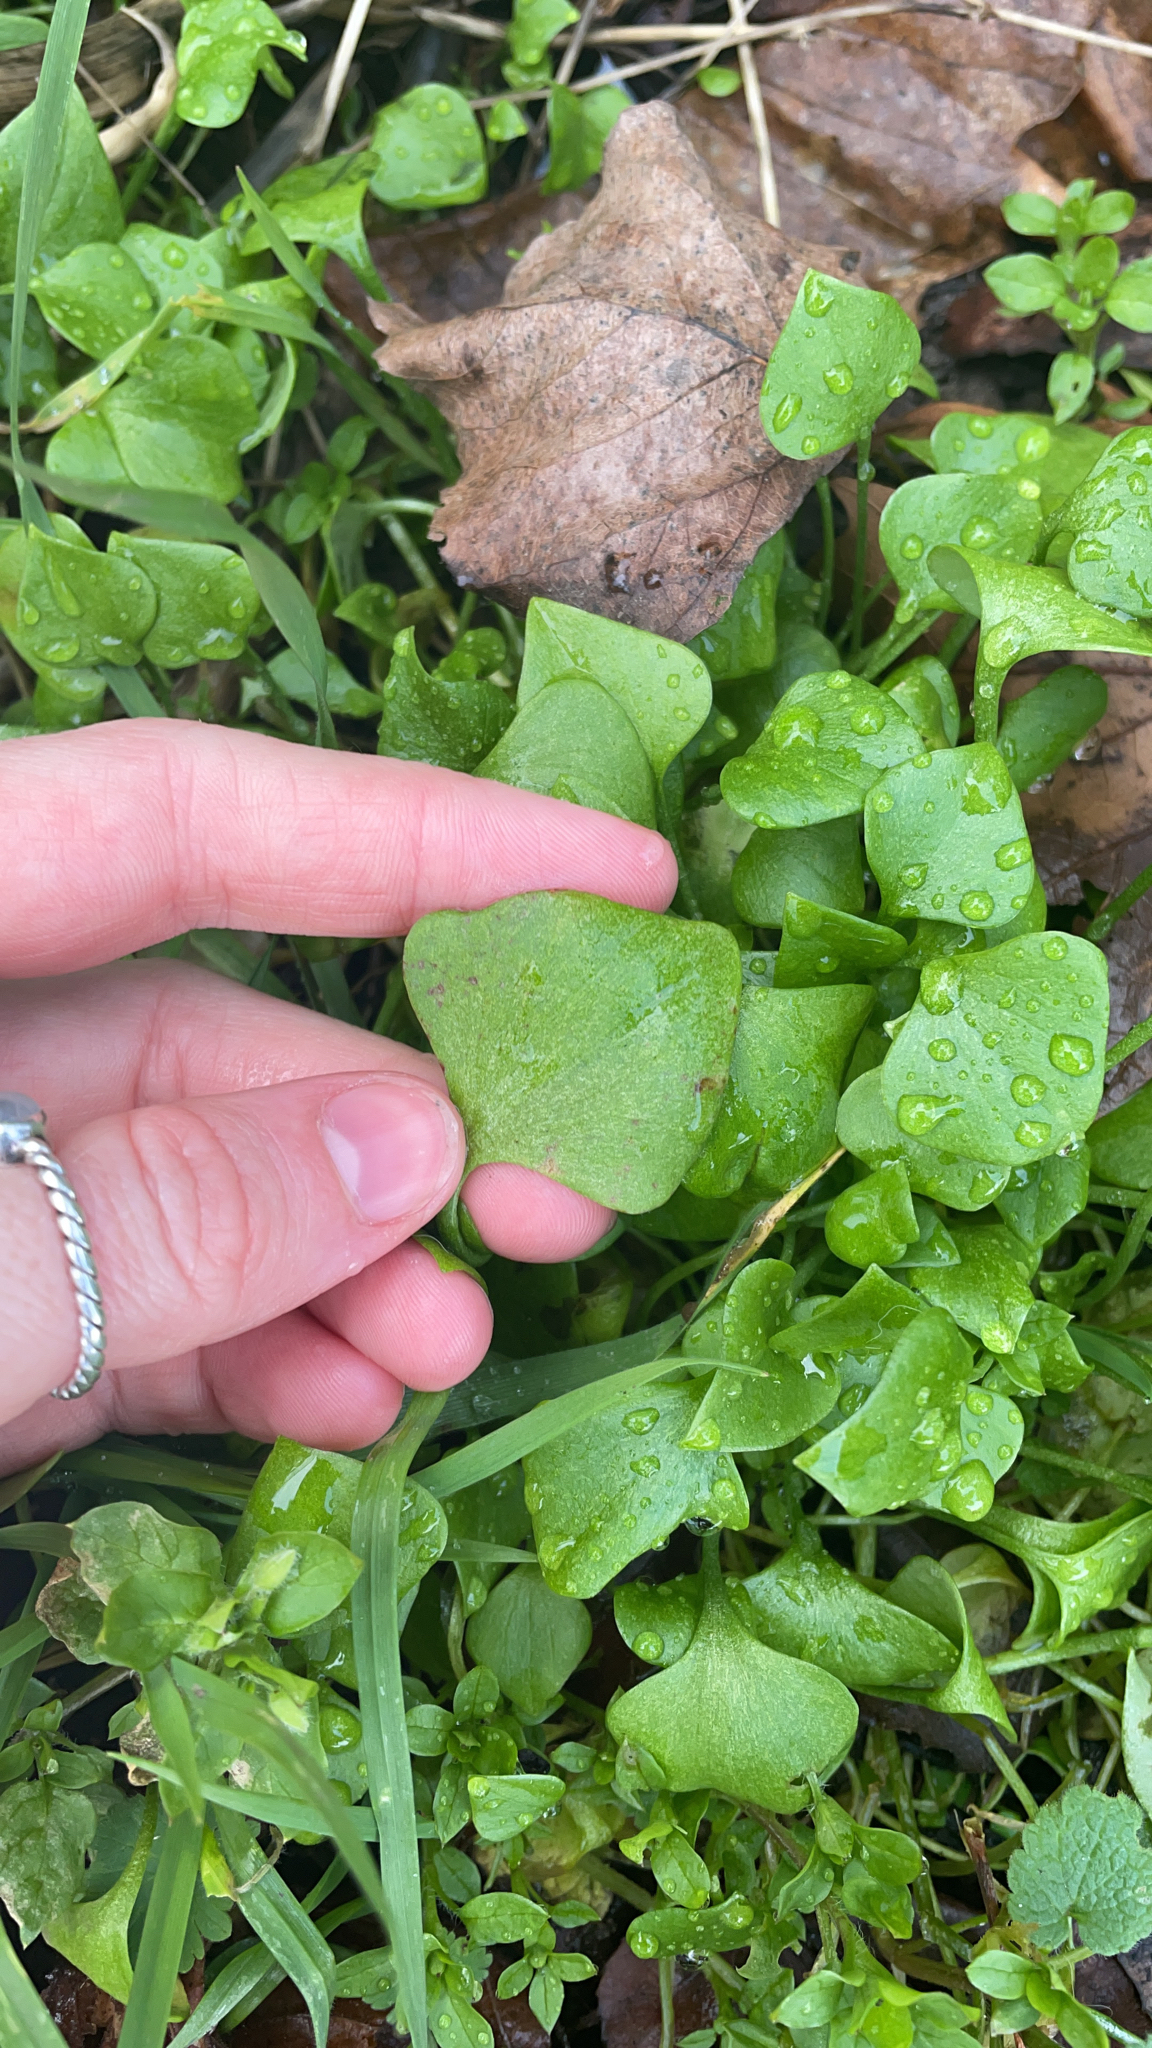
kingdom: Plantae
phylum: Tracheophyta
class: Magnoliopsida
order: Caryophyllales
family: Montiaceae
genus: Claytonia
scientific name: Claytonia perfoliata
